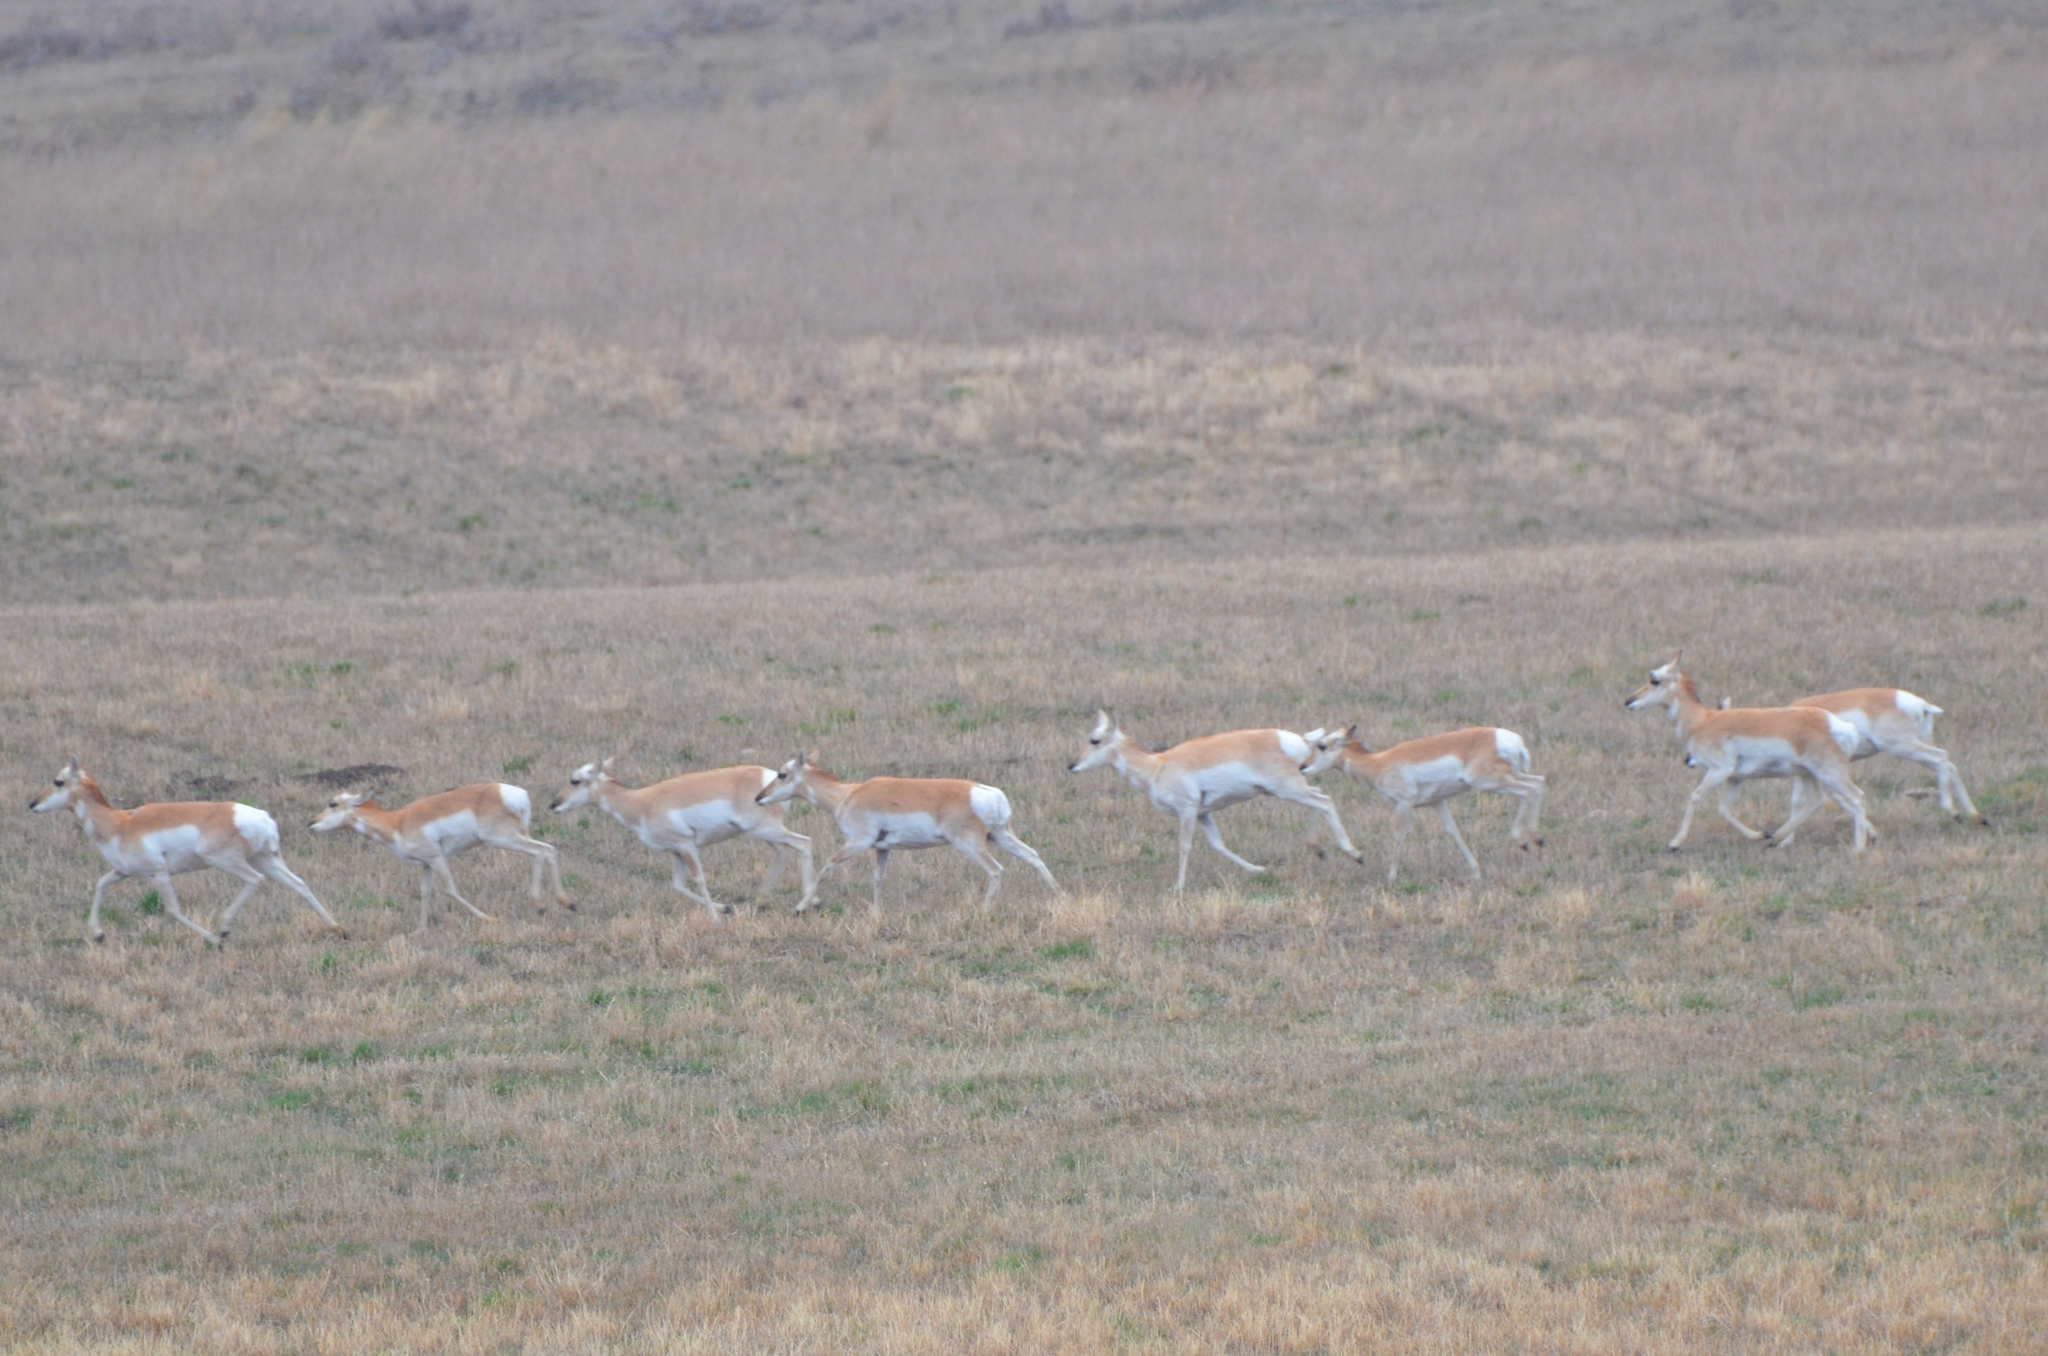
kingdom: Animalia
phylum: Chordata
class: Mammalia
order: Artiodactyla
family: Antilocapridae
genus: Antilocapra
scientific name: Antilocapra americana
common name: Pronghorn
